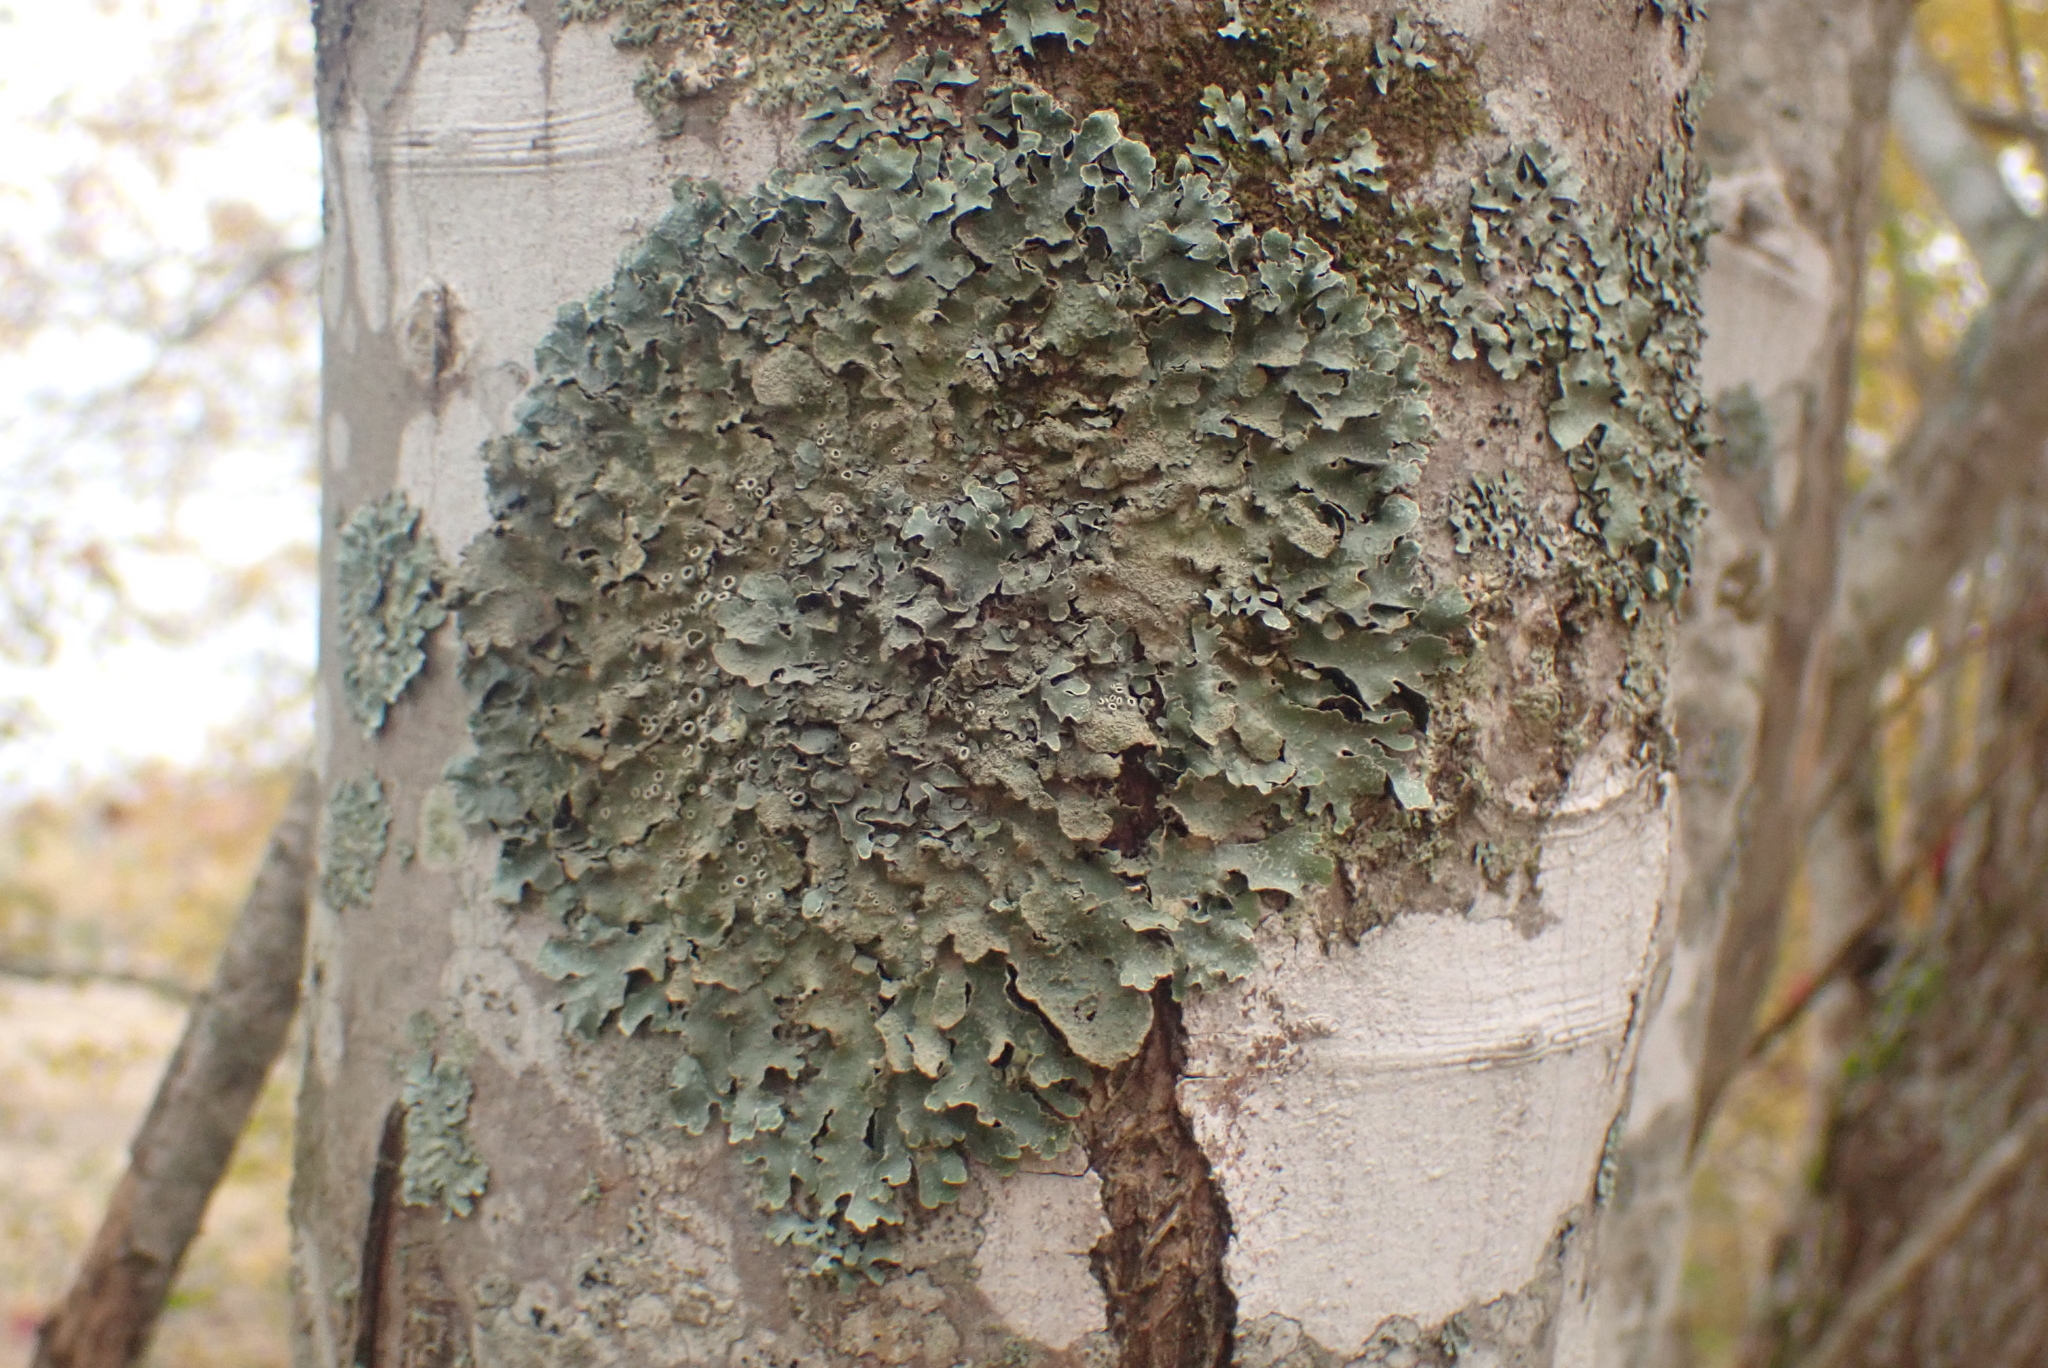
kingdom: Fungi
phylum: Ascomycota
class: Lecanoromycetes
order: Lecanorales
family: Parmeliaceae
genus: Parmelia
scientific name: Parmelia sulcata
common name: Netted shield lichen
